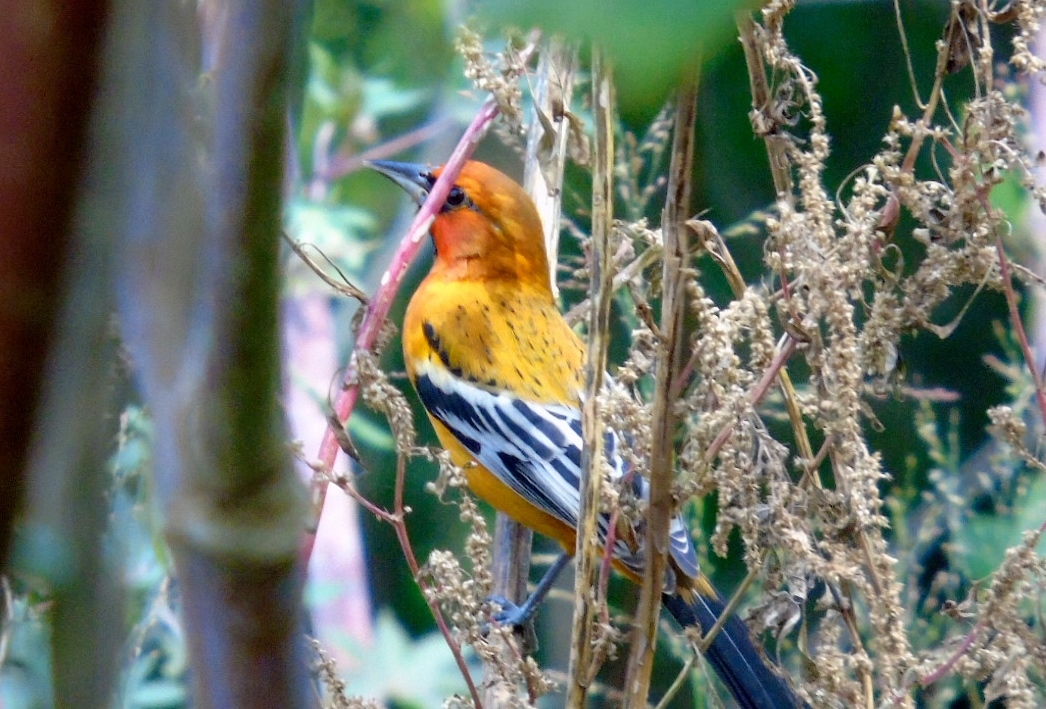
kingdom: Animalia
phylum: Chordata
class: Aves
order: Passeriformes
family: Icteridae
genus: Icterus
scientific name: Icterus pustulatus
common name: Streak-backed oriole
